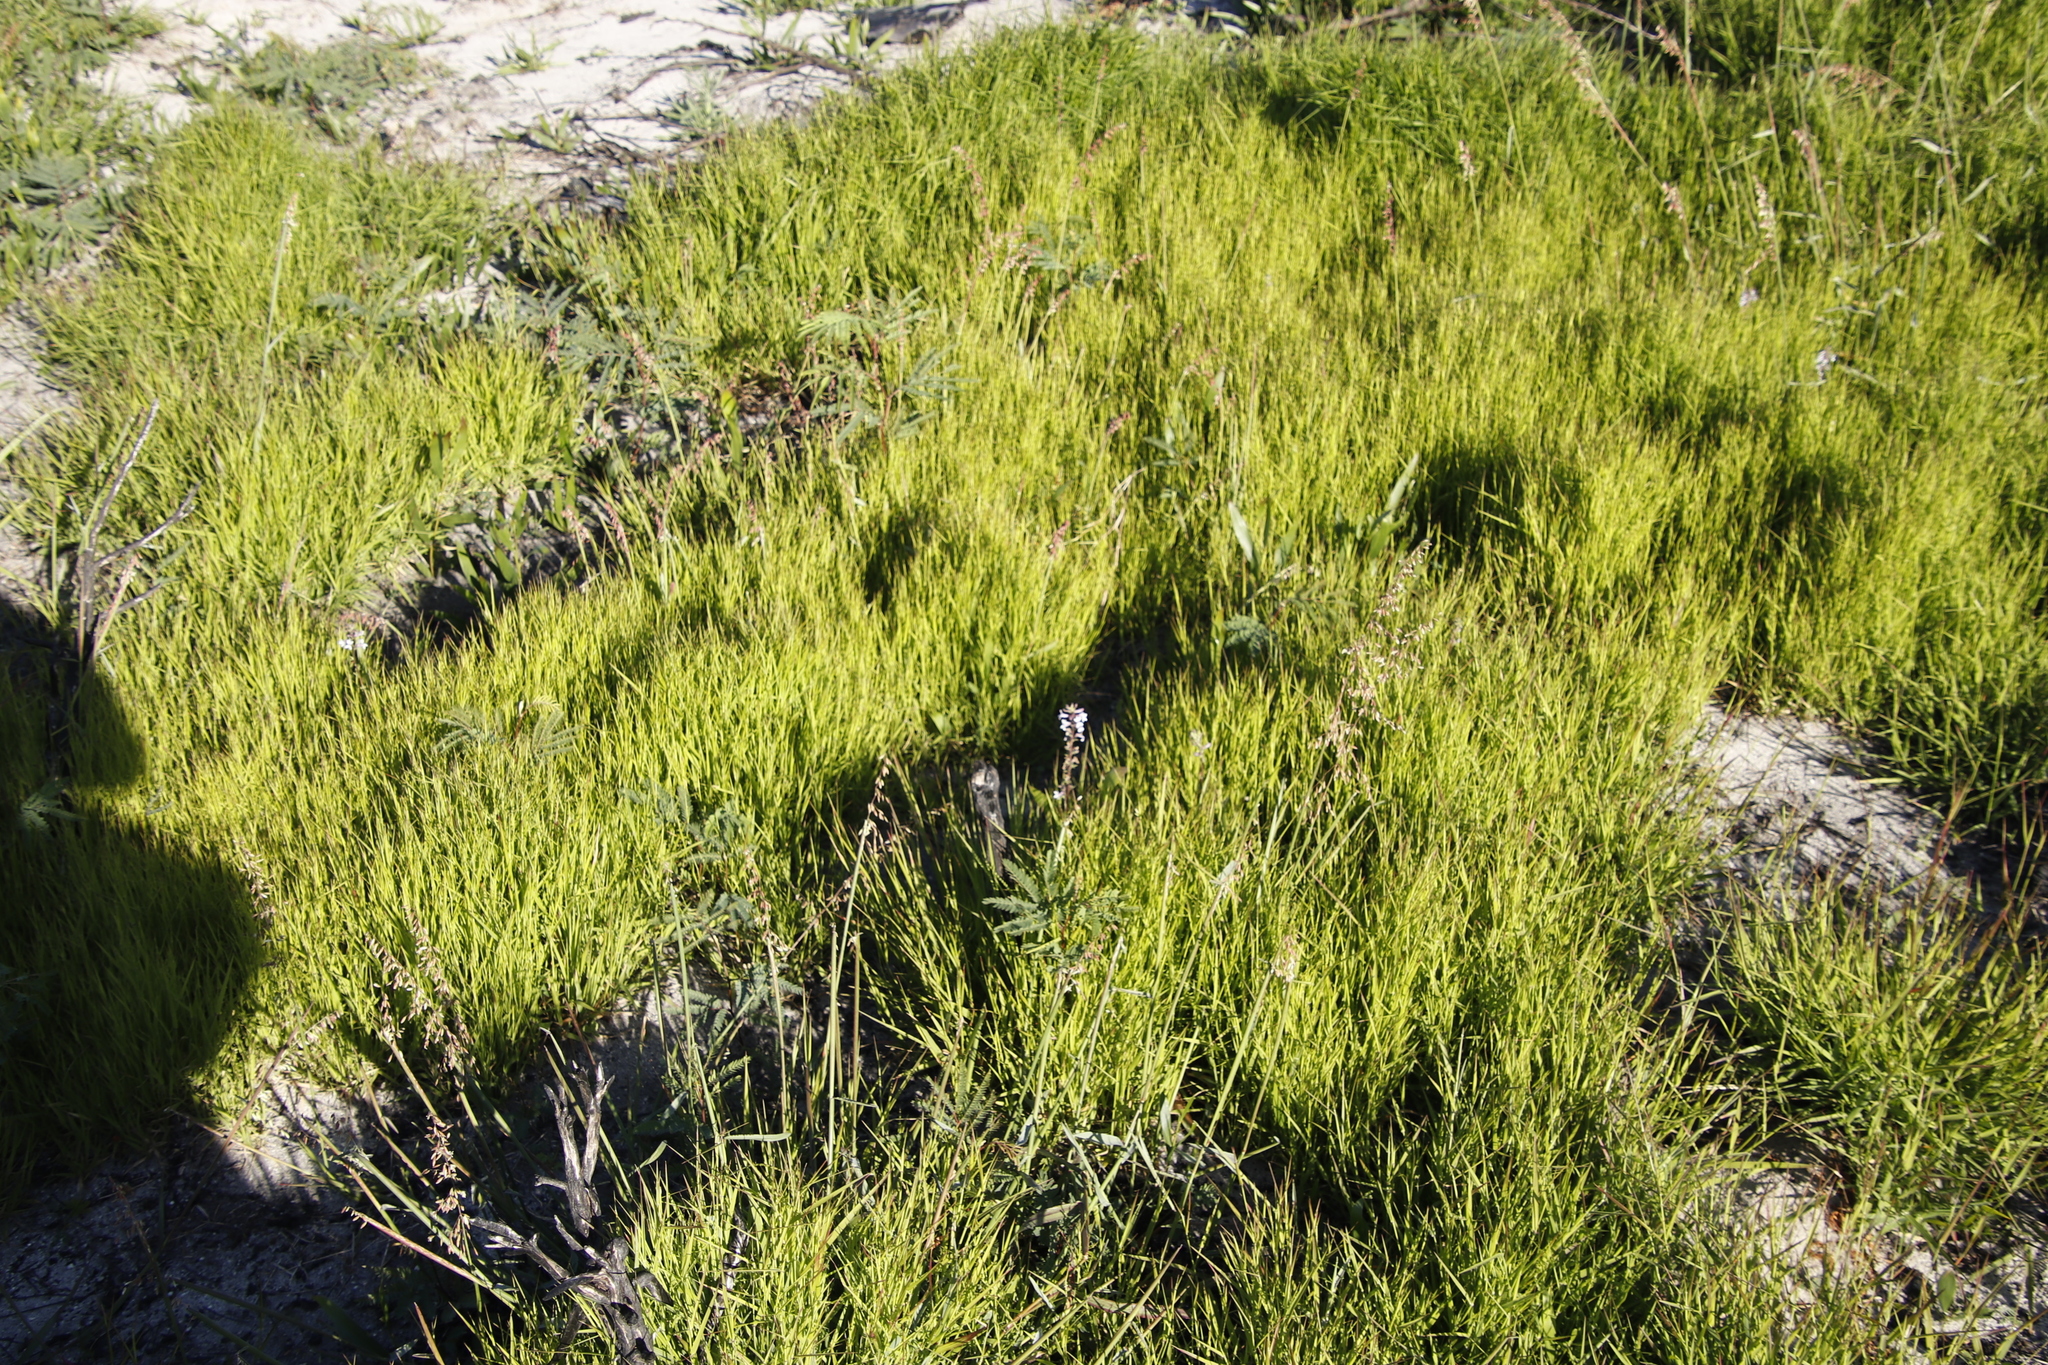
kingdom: Plantae
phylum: Tracheophyta
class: Magnoliopsida
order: Asterales
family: Campanulaceae
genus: Cyphia
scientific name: Cyphia bulbosa
